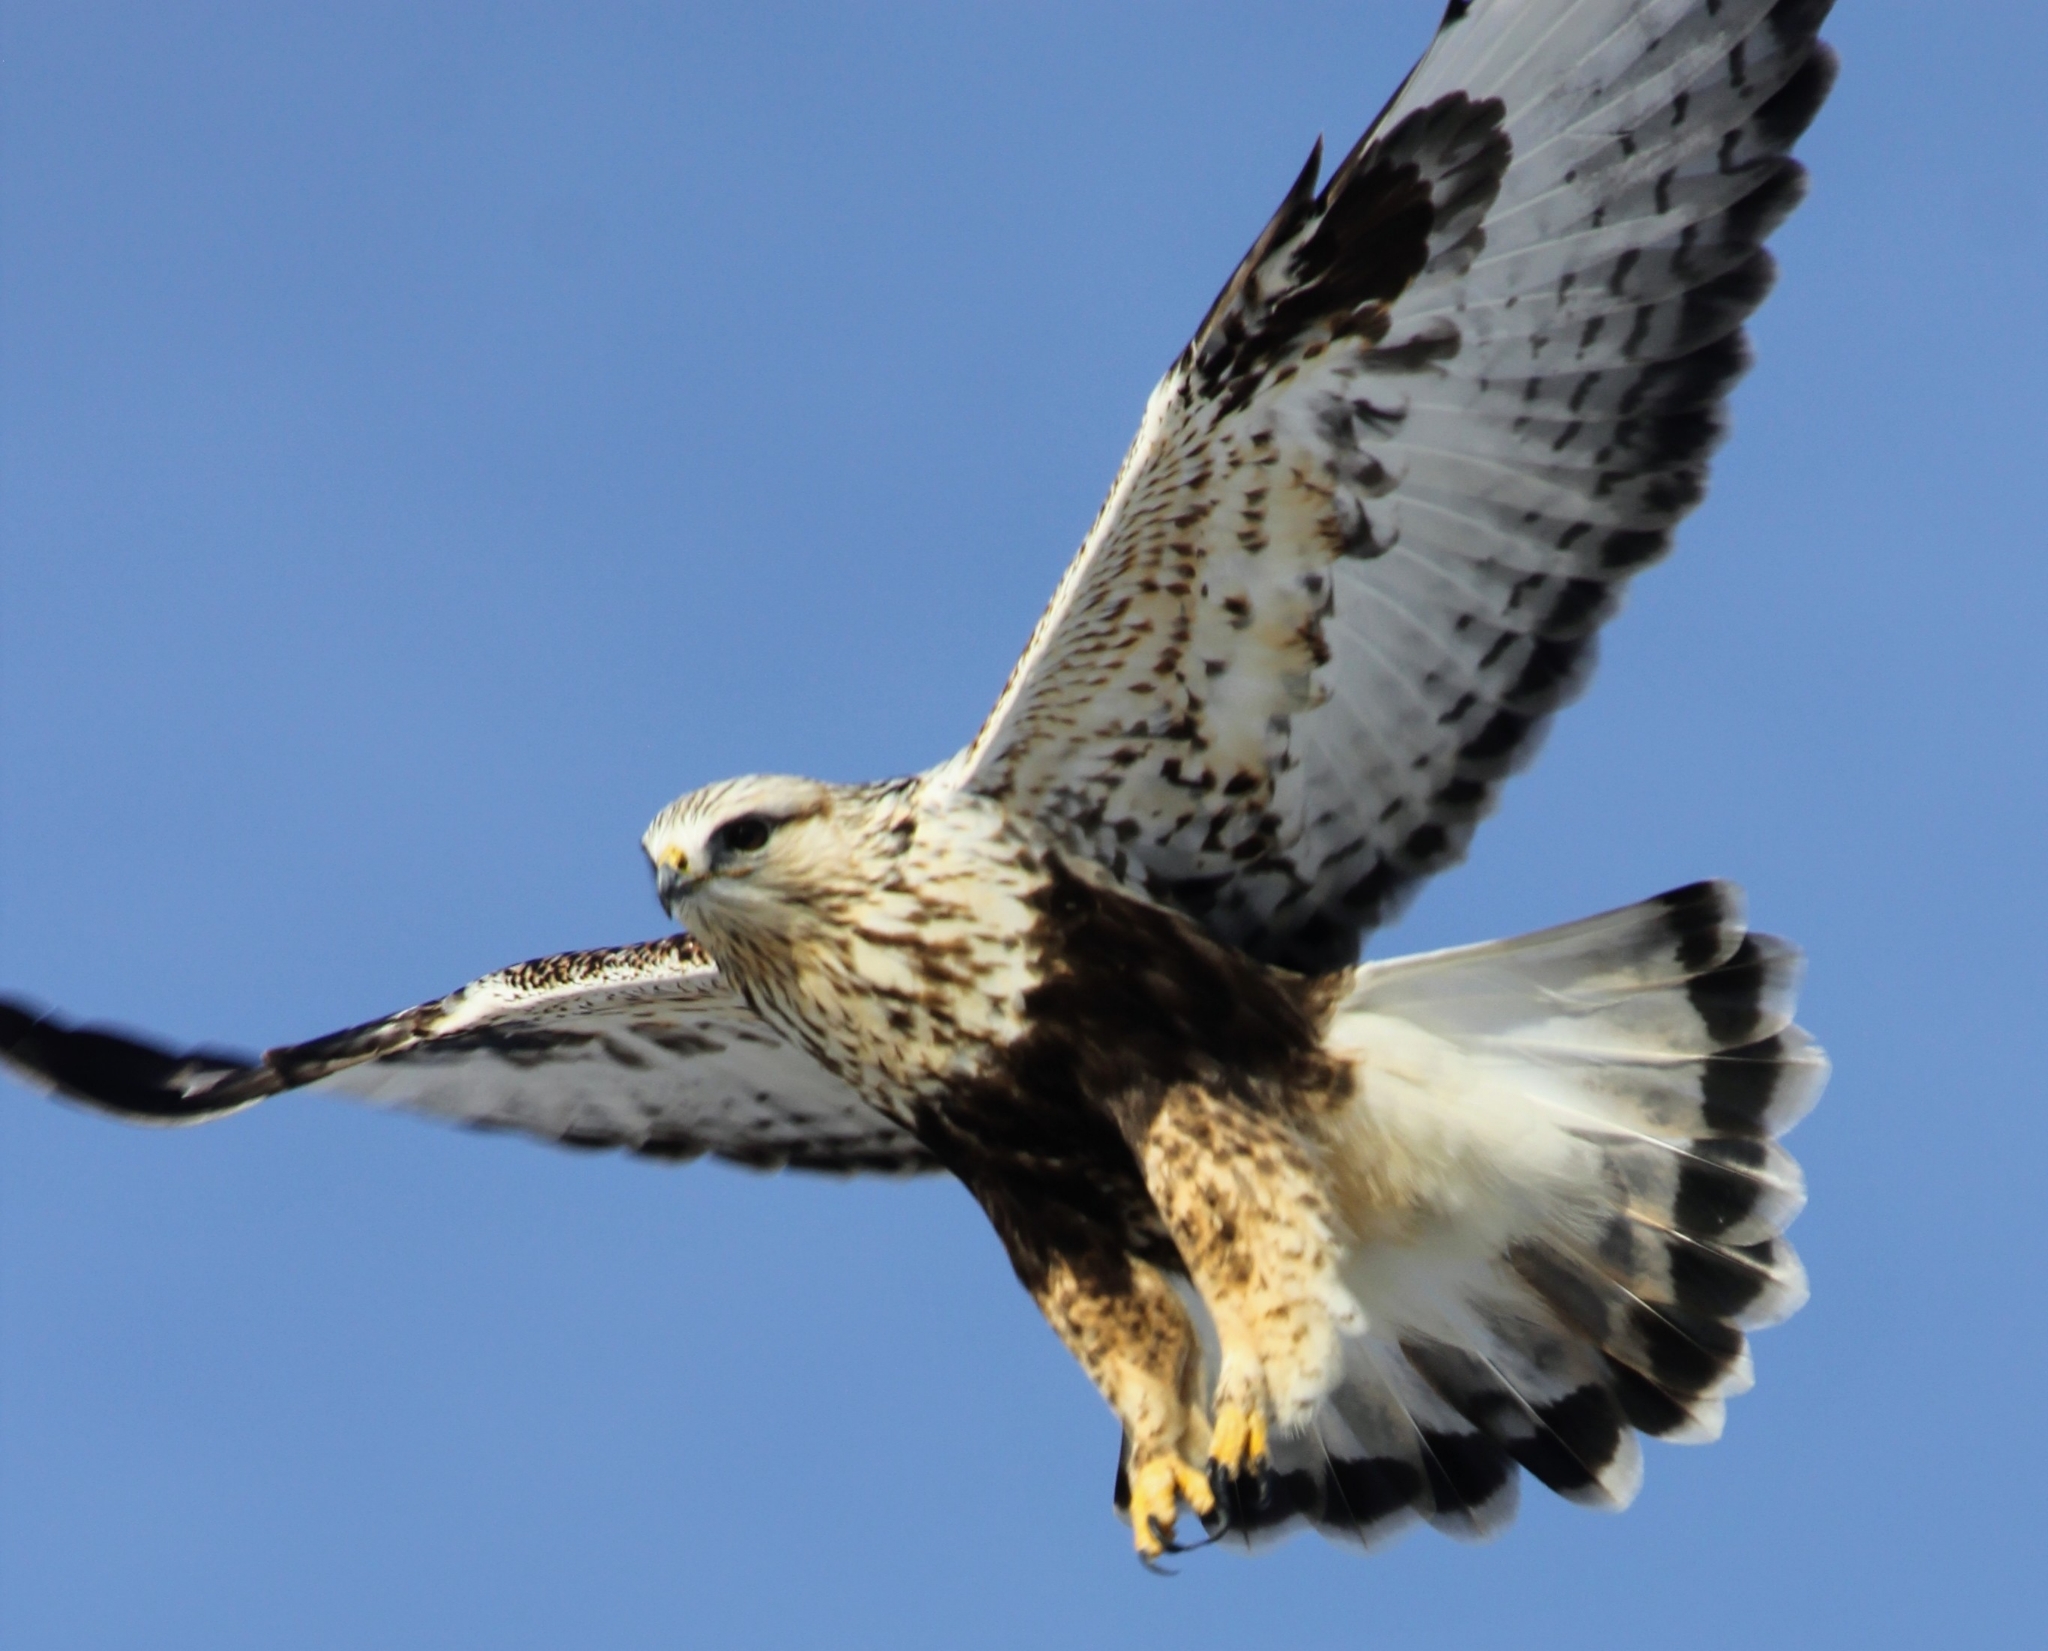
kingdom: Animalia
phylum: Chordata
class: Aves
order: Accipitriformes
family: Accipitridae
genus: Buteo
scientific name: Buteo lagopus
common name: Rough-legged buzzard
